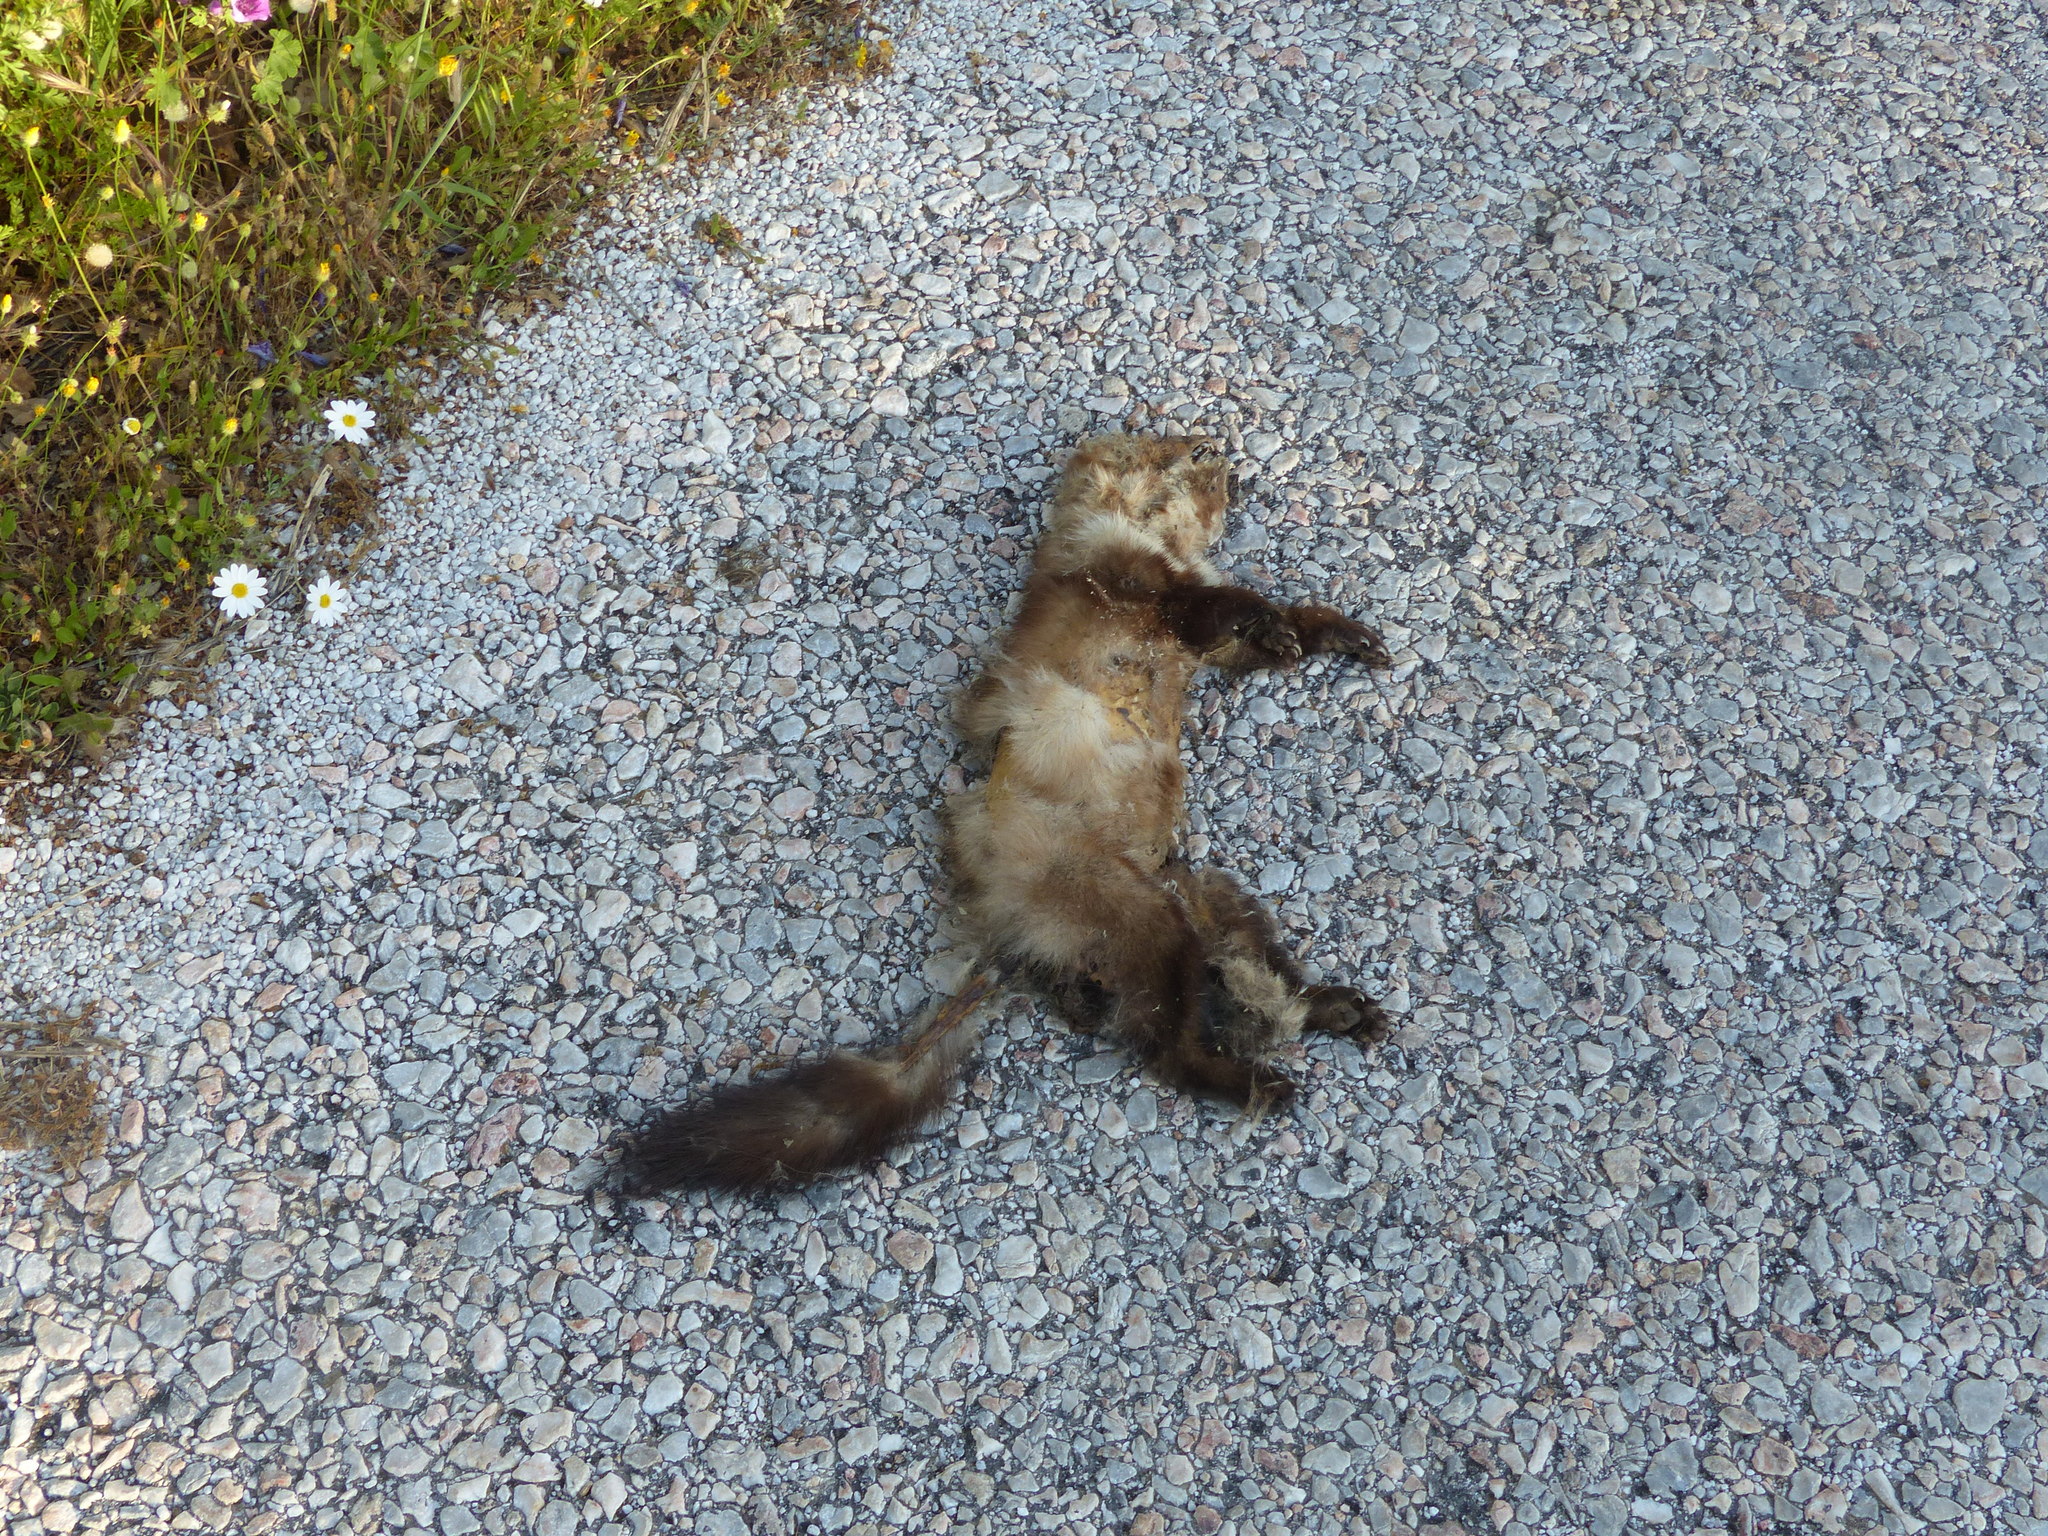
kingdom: Animalia
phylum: Chordata
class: Mammalia
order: Carnivora
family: Mustelidae
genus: Martes
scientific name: Martes foina
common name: Beech marten
